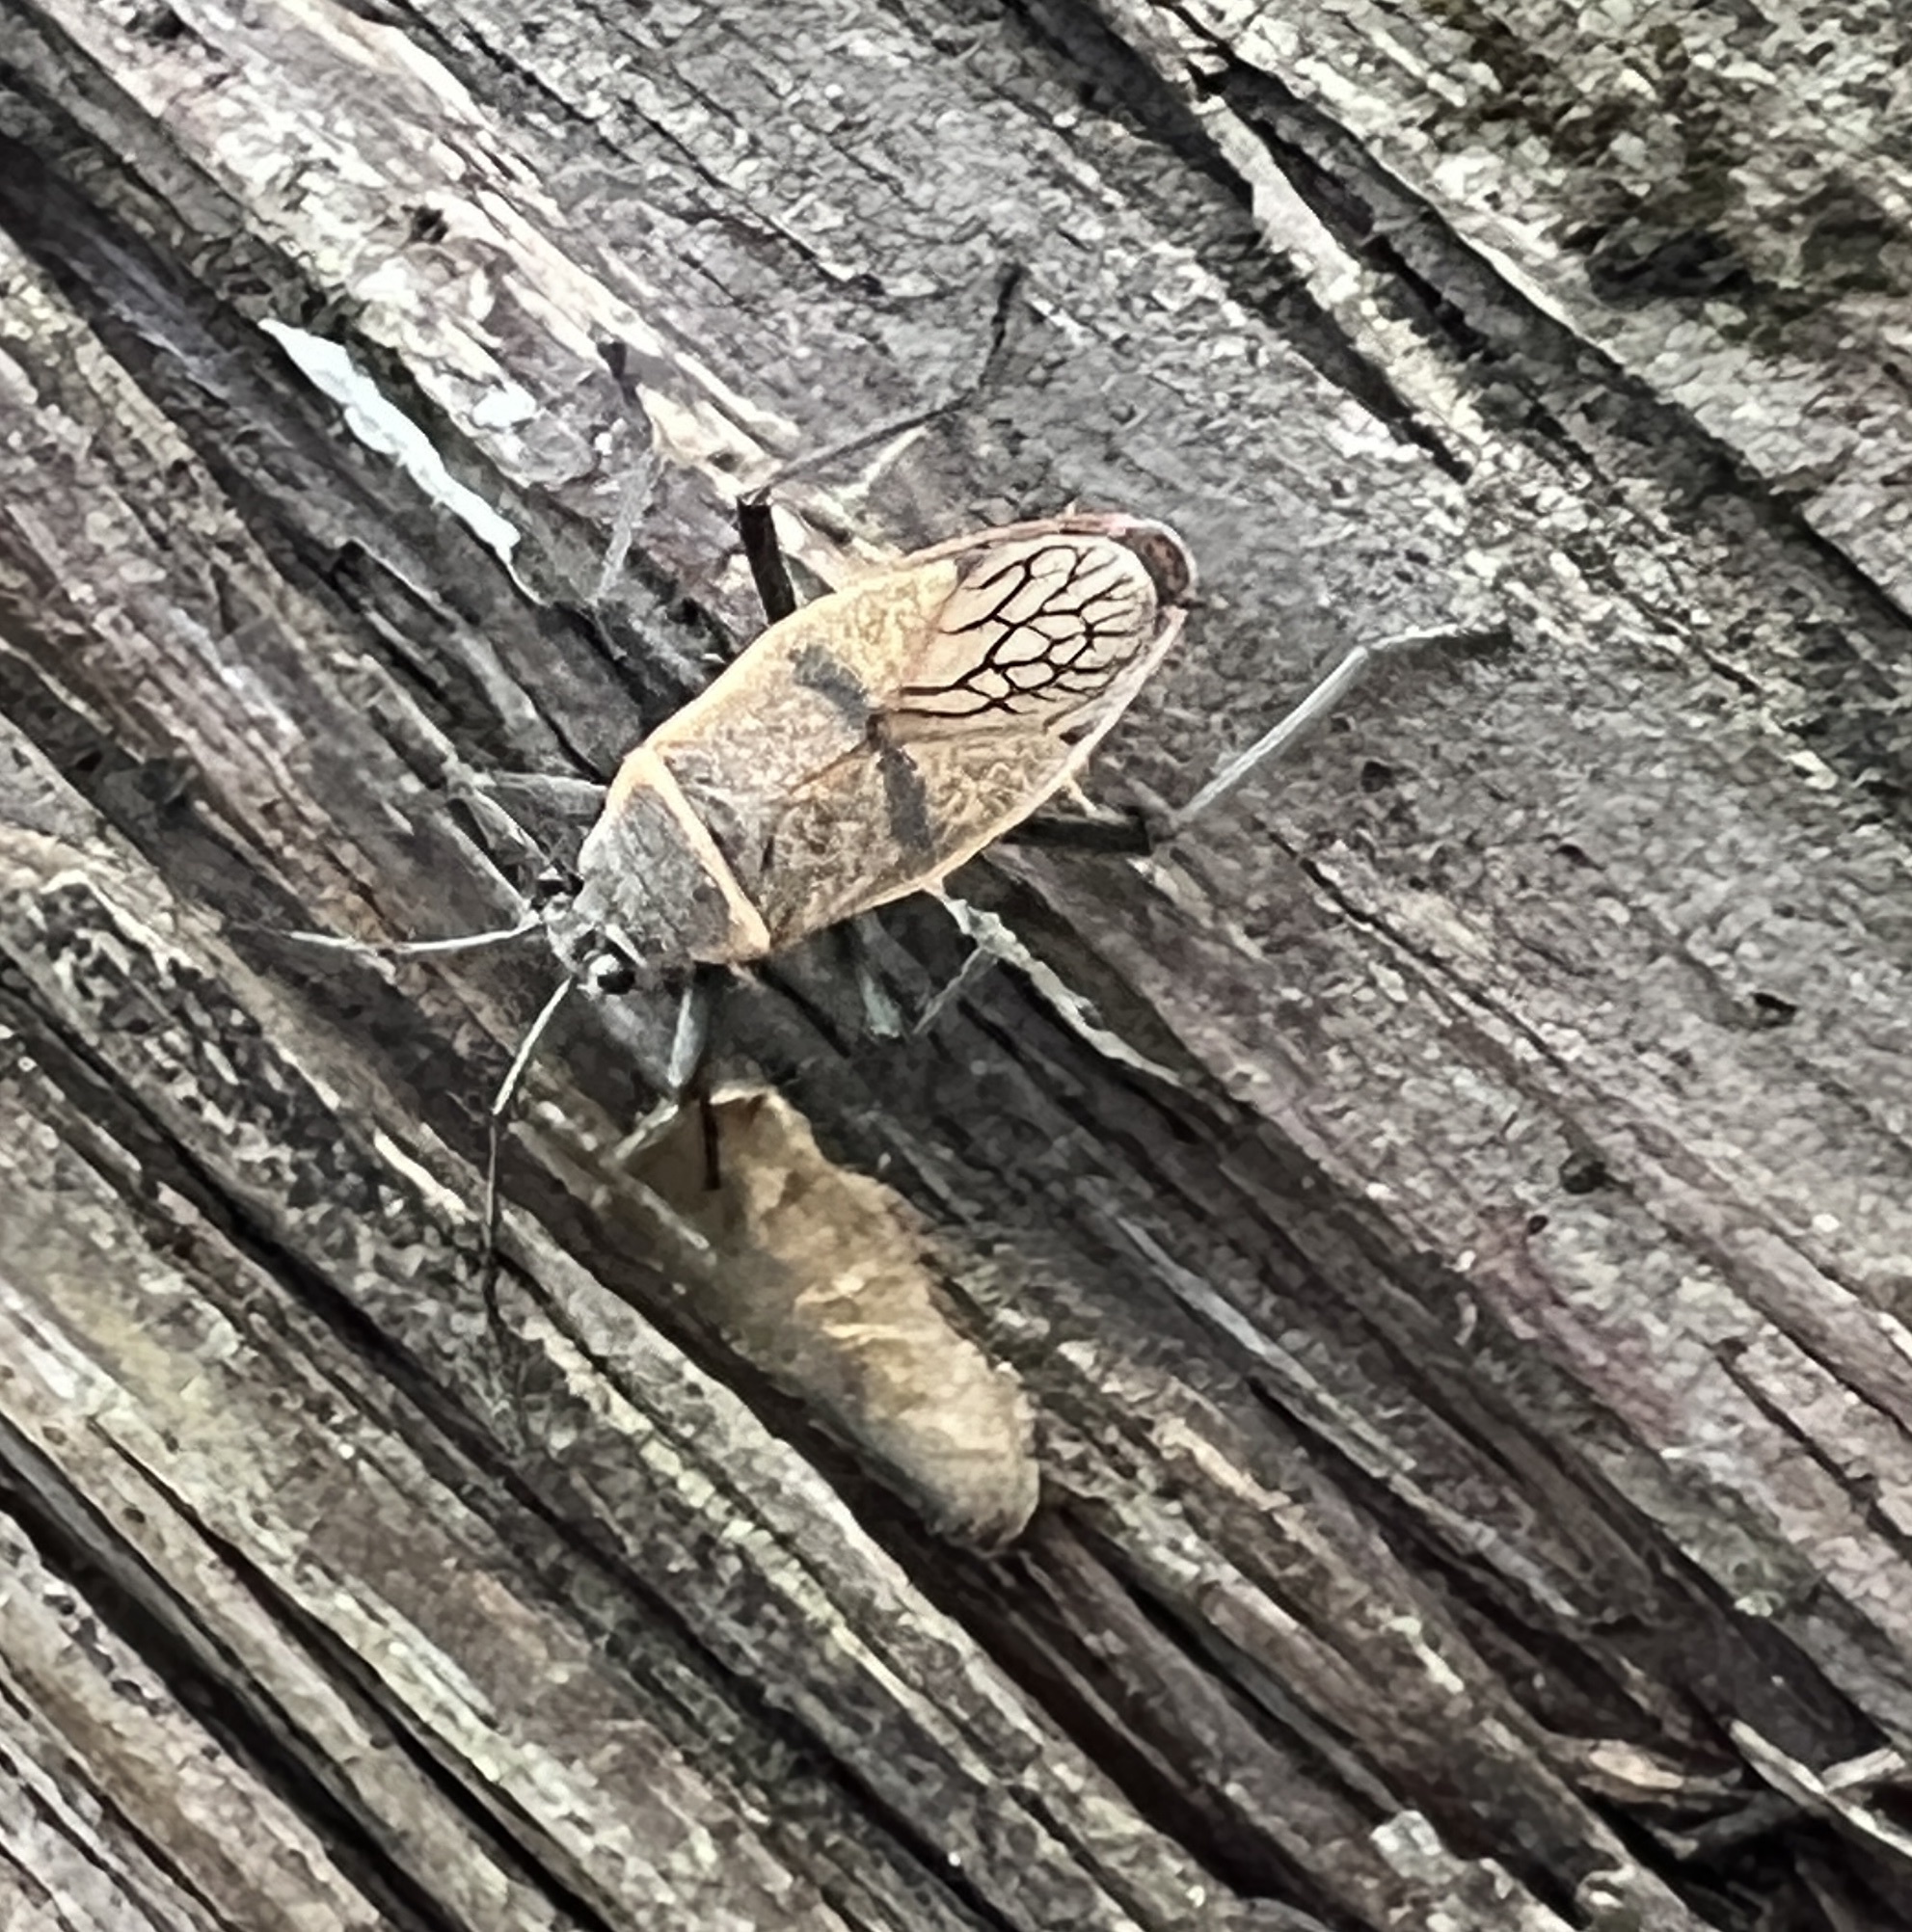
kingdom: Animalia
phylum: Arthropoda
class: Insecta
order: Hemiptera
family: Largidae
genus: Largus
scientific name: Largus maculatus
